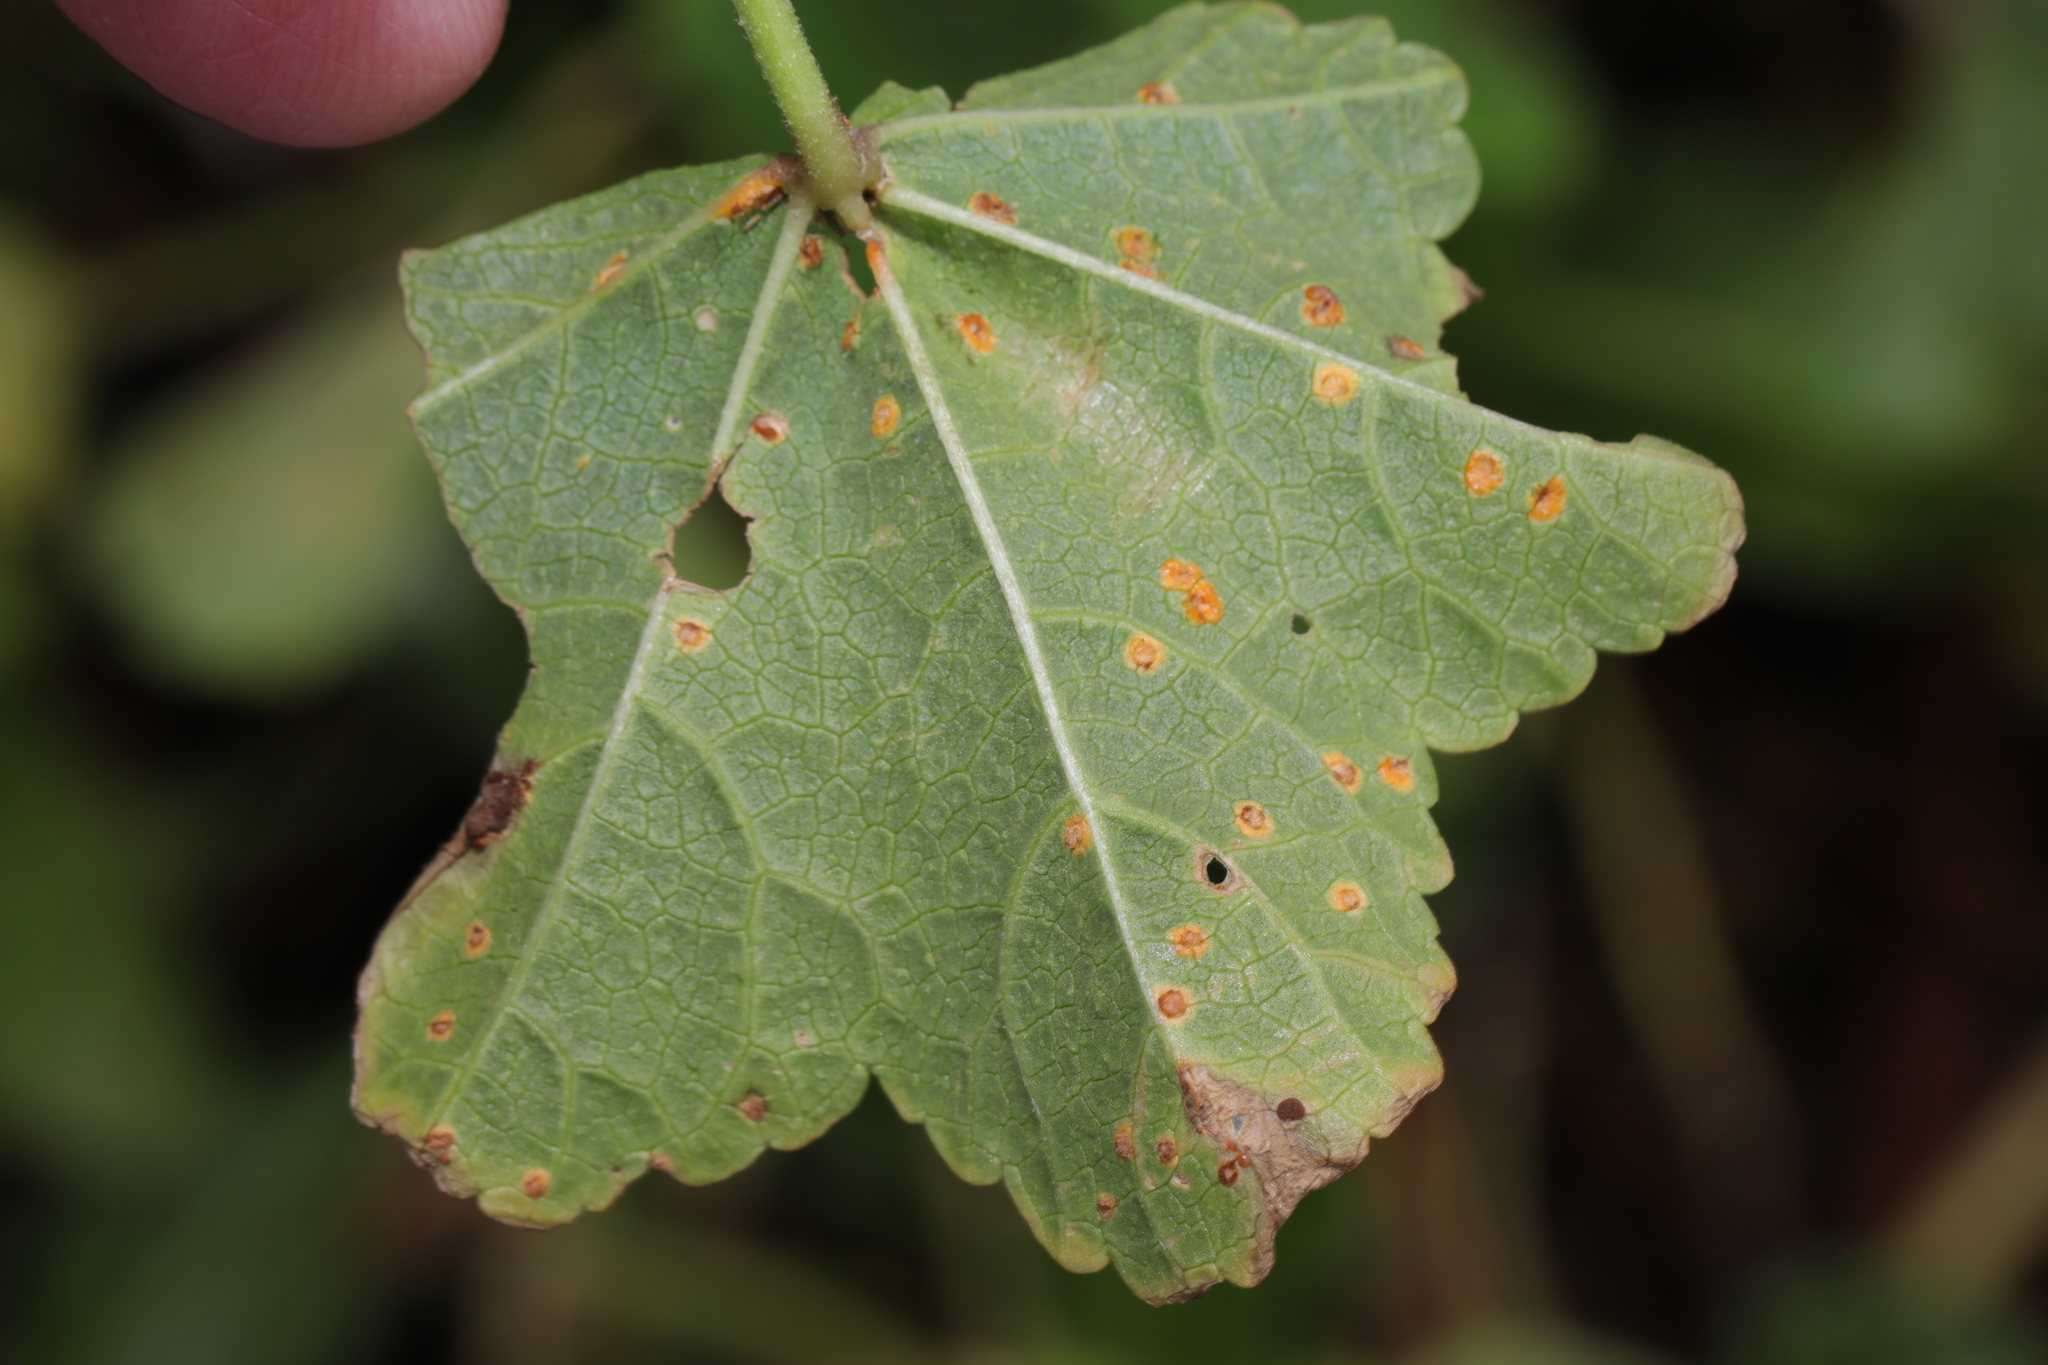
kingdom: Fungi
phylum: Basidiomycota
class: Pucciniomycetes
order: Pucciniales
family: Pucciniaceae
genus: Puccinia
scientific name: Puccinia malvacearum
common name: Hollyhock rust
